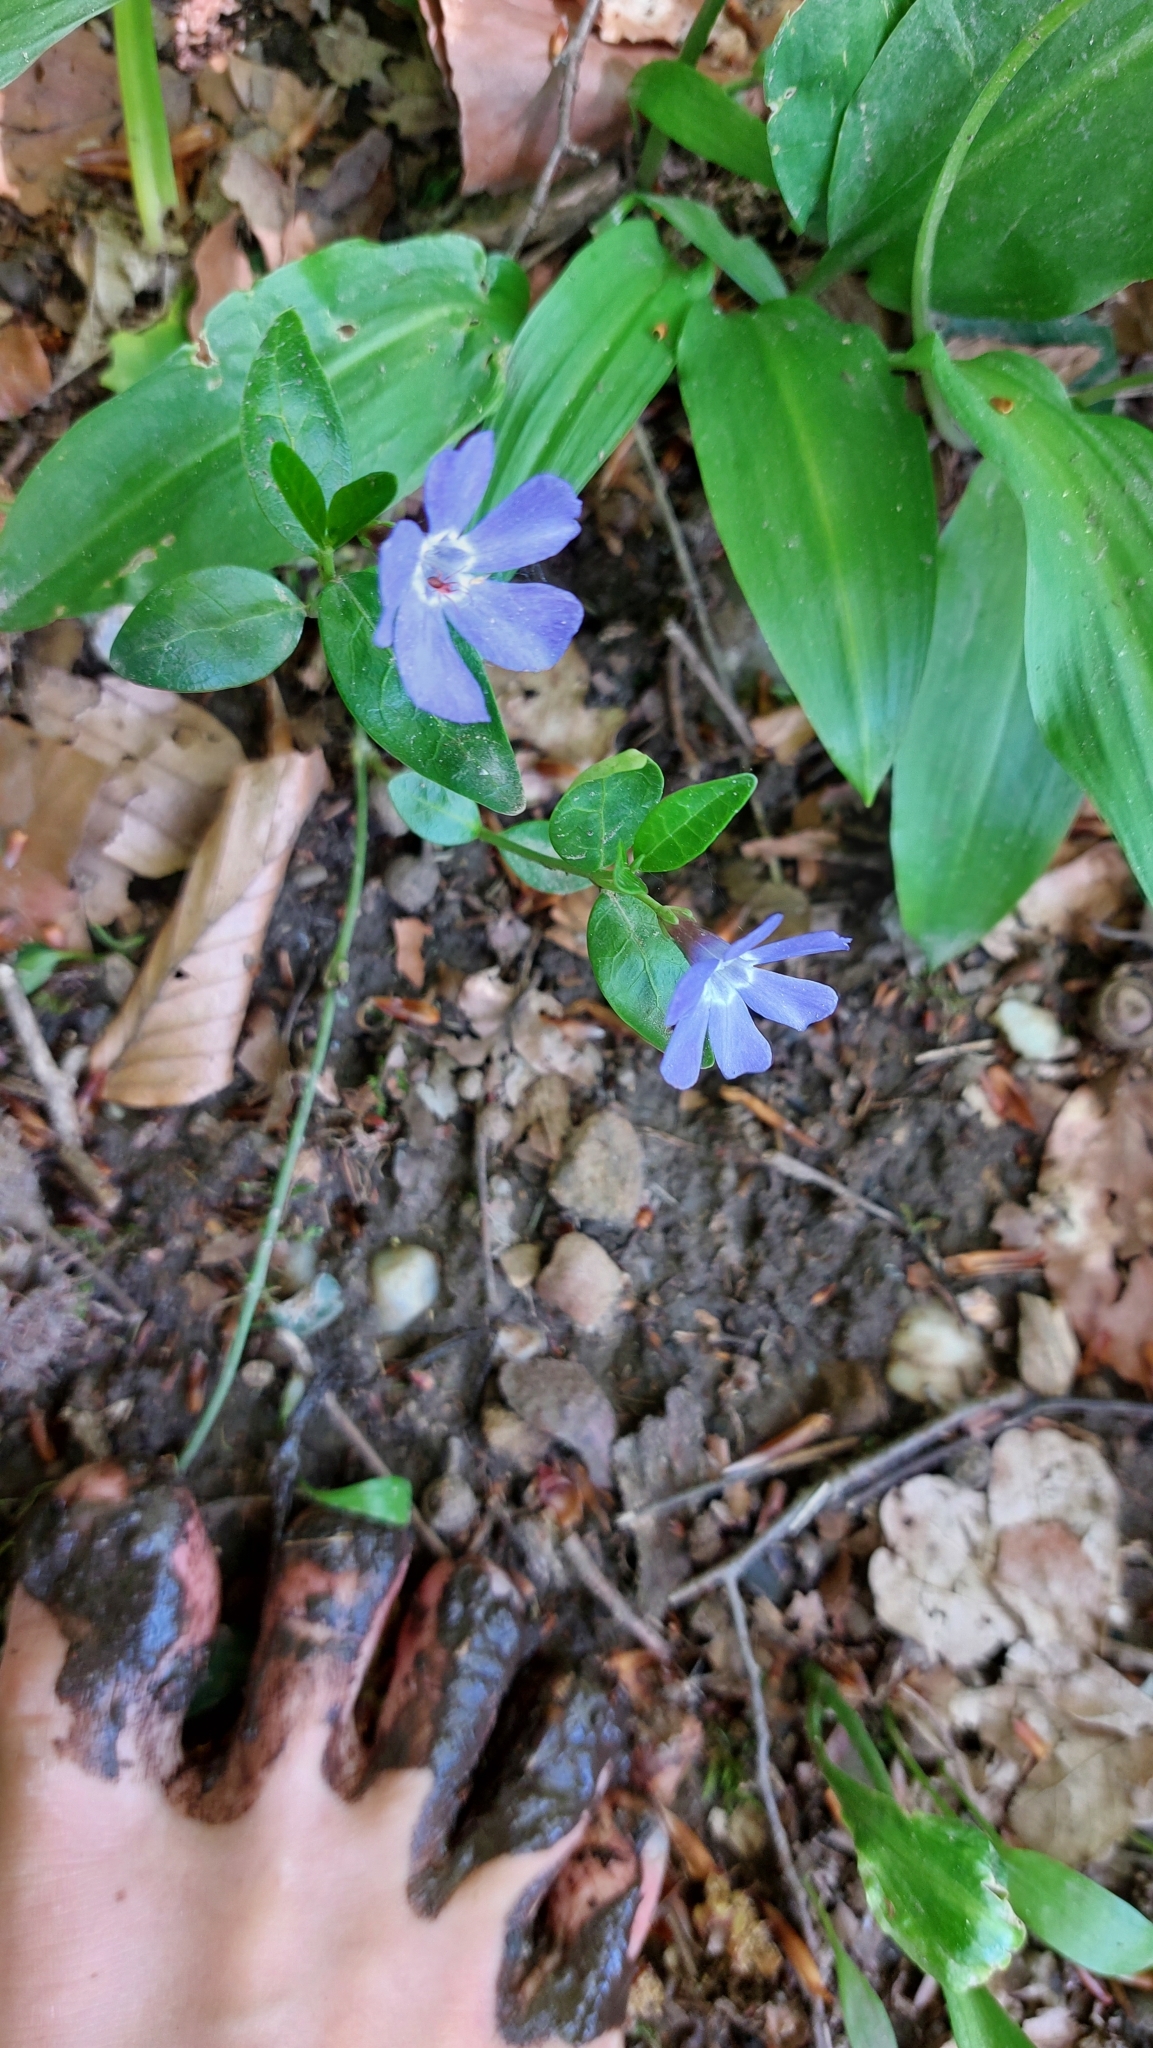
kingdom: Plantae
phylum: Tracheophyta
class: Magnoliopsida
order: Gentianales
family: Apocynaceae
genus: Vinca
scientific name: Vinca minor
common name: Lesser periwinkle
